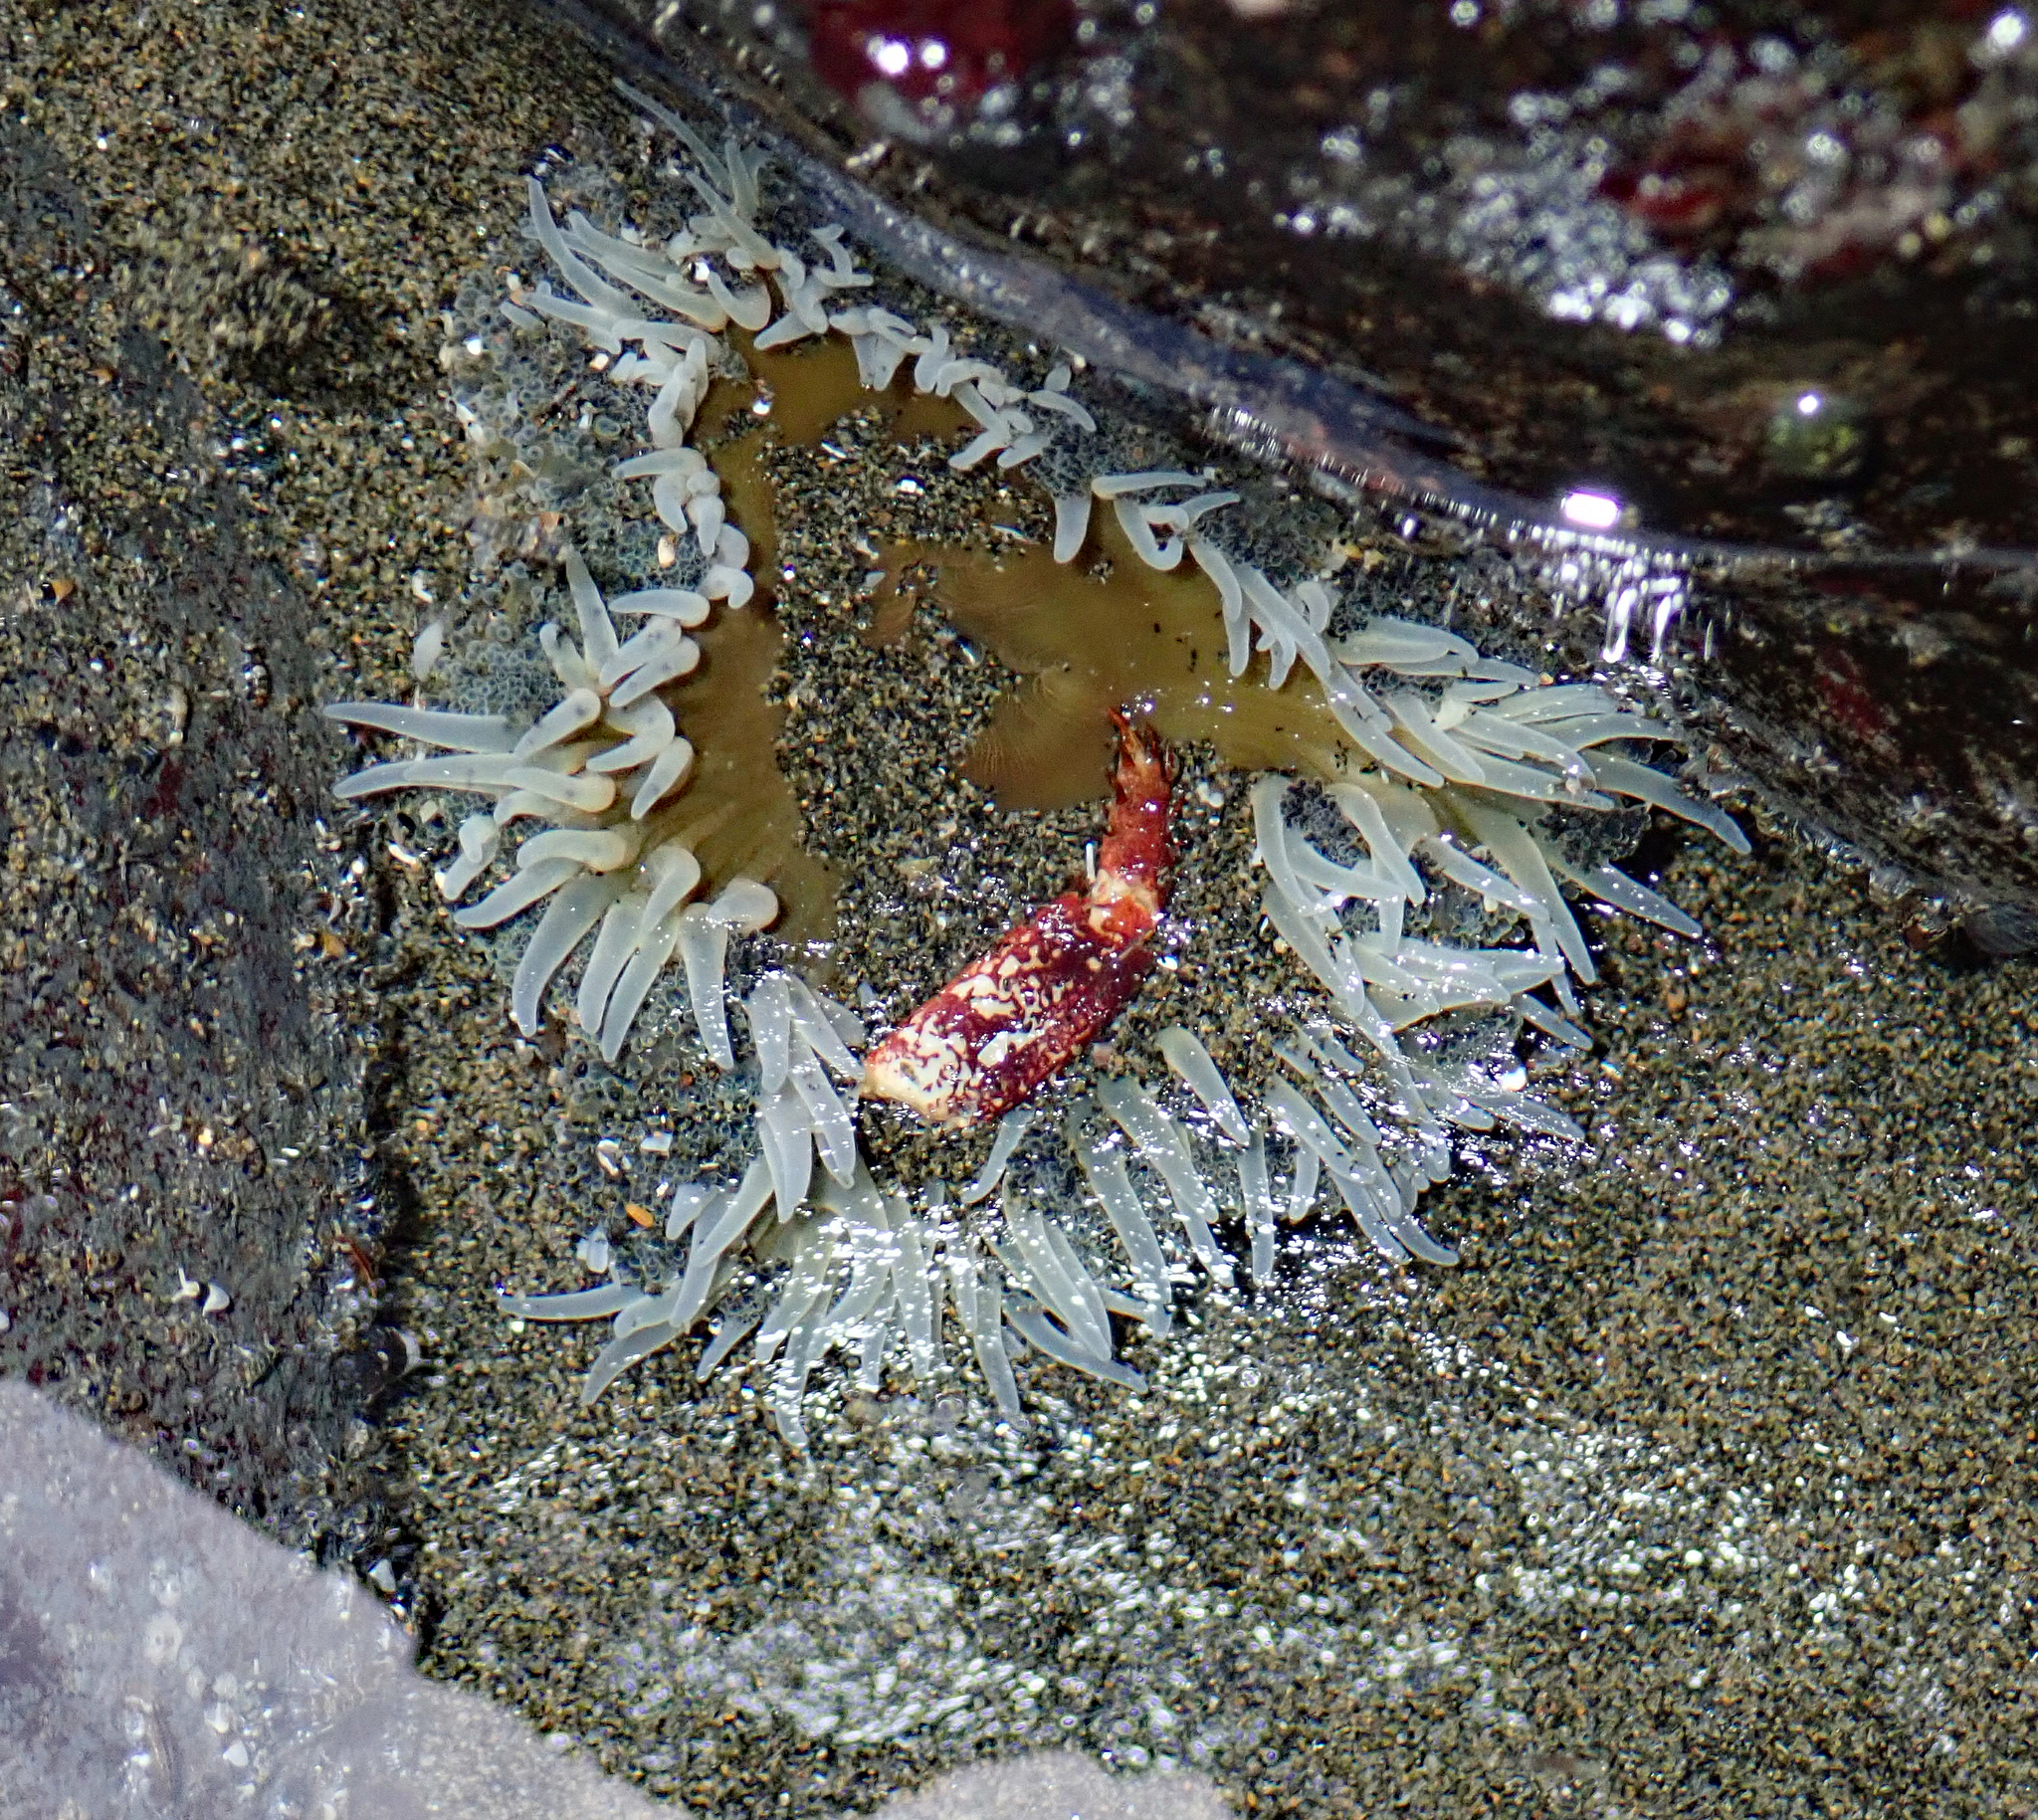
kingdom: Animalia
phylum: Cnidaria
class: Anthozoa
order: Actiniaria
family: Actiniidae
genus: Oulactis
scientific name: Oulactis magna
